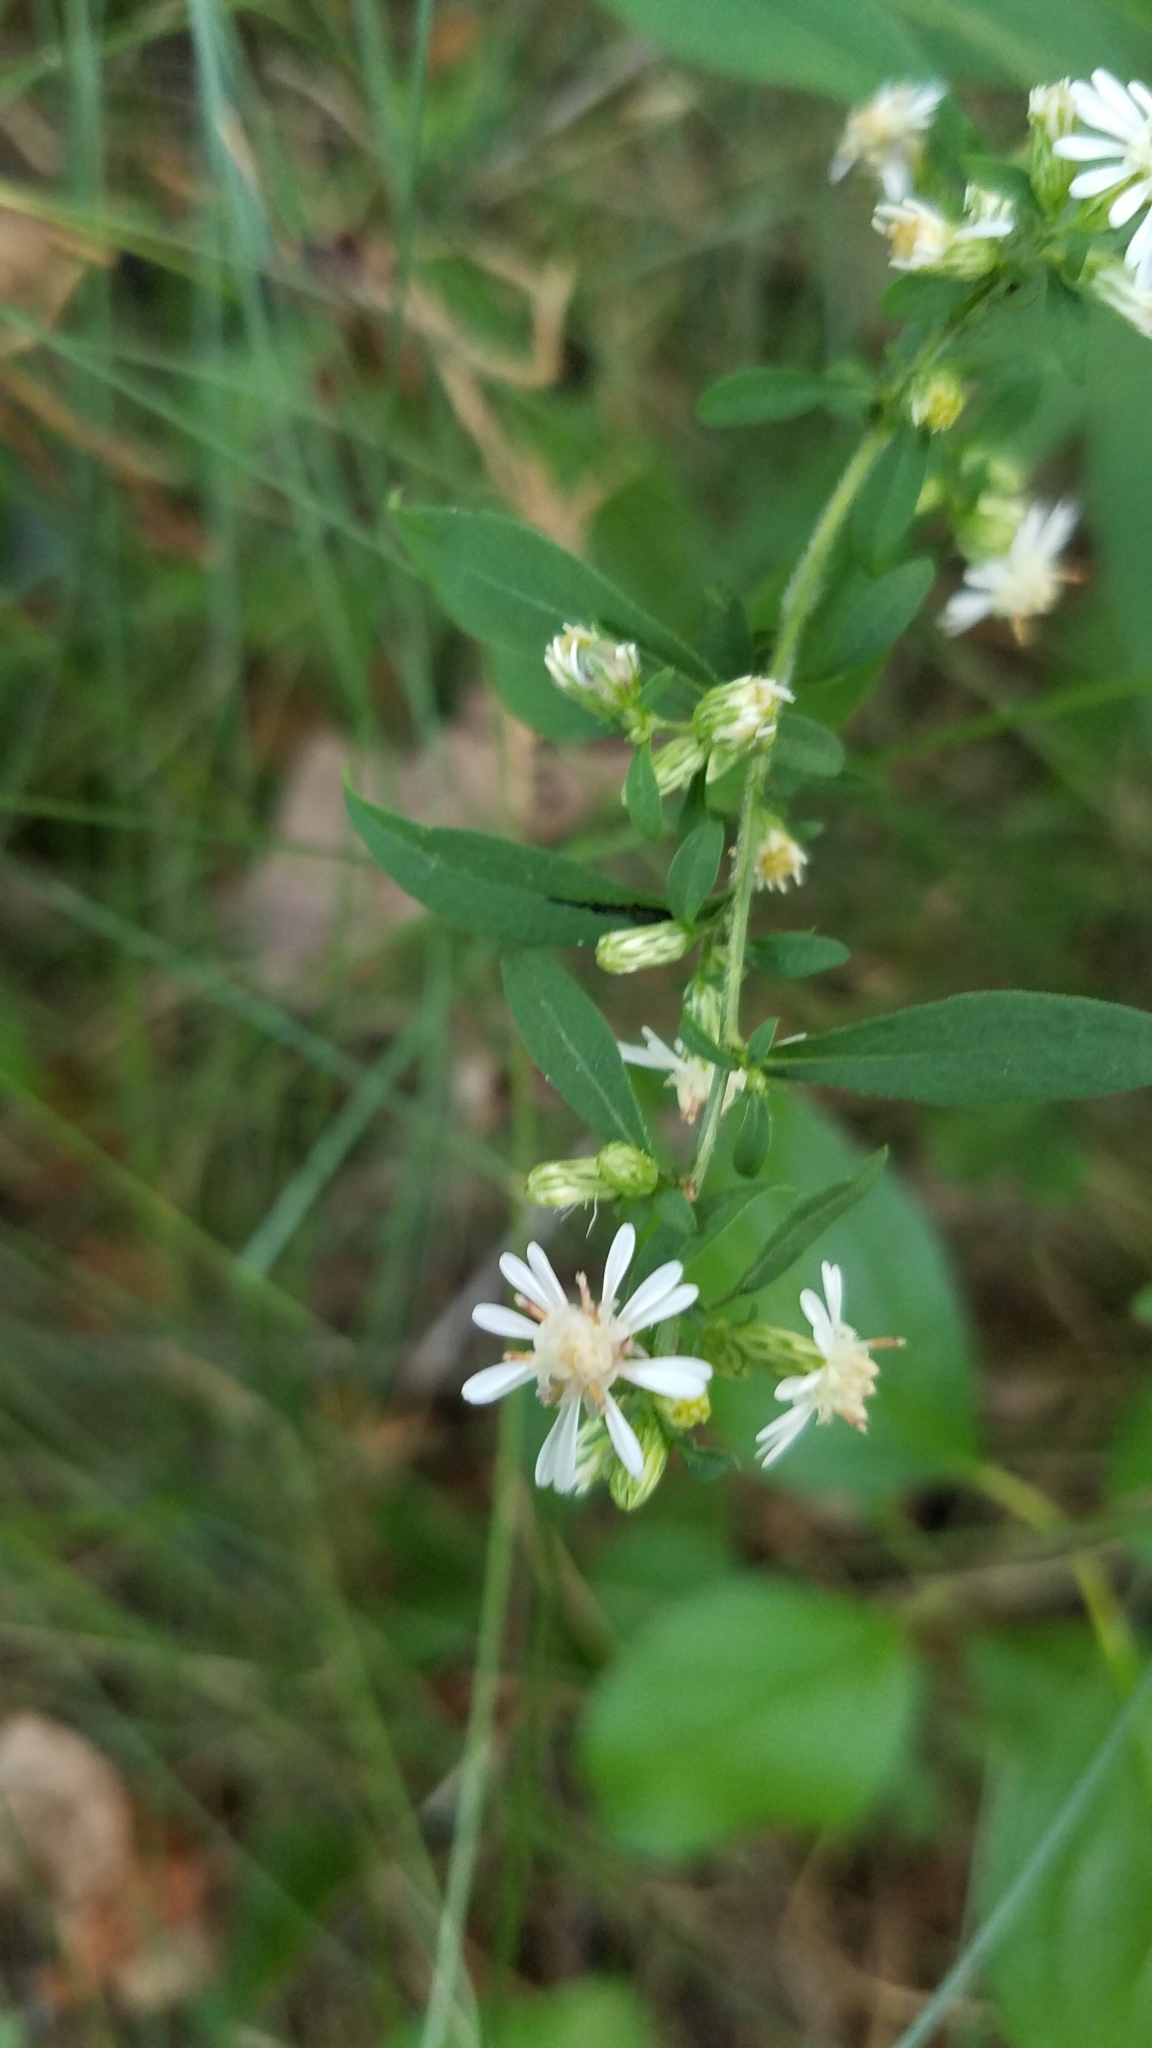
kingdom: Plantae
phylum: Tracheophyta
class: Magnoliopsida
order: Asterales
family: Asteraceae
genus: Symphyotrichum
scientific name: Symphyotrichum lateriflorum
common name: Calico aster
